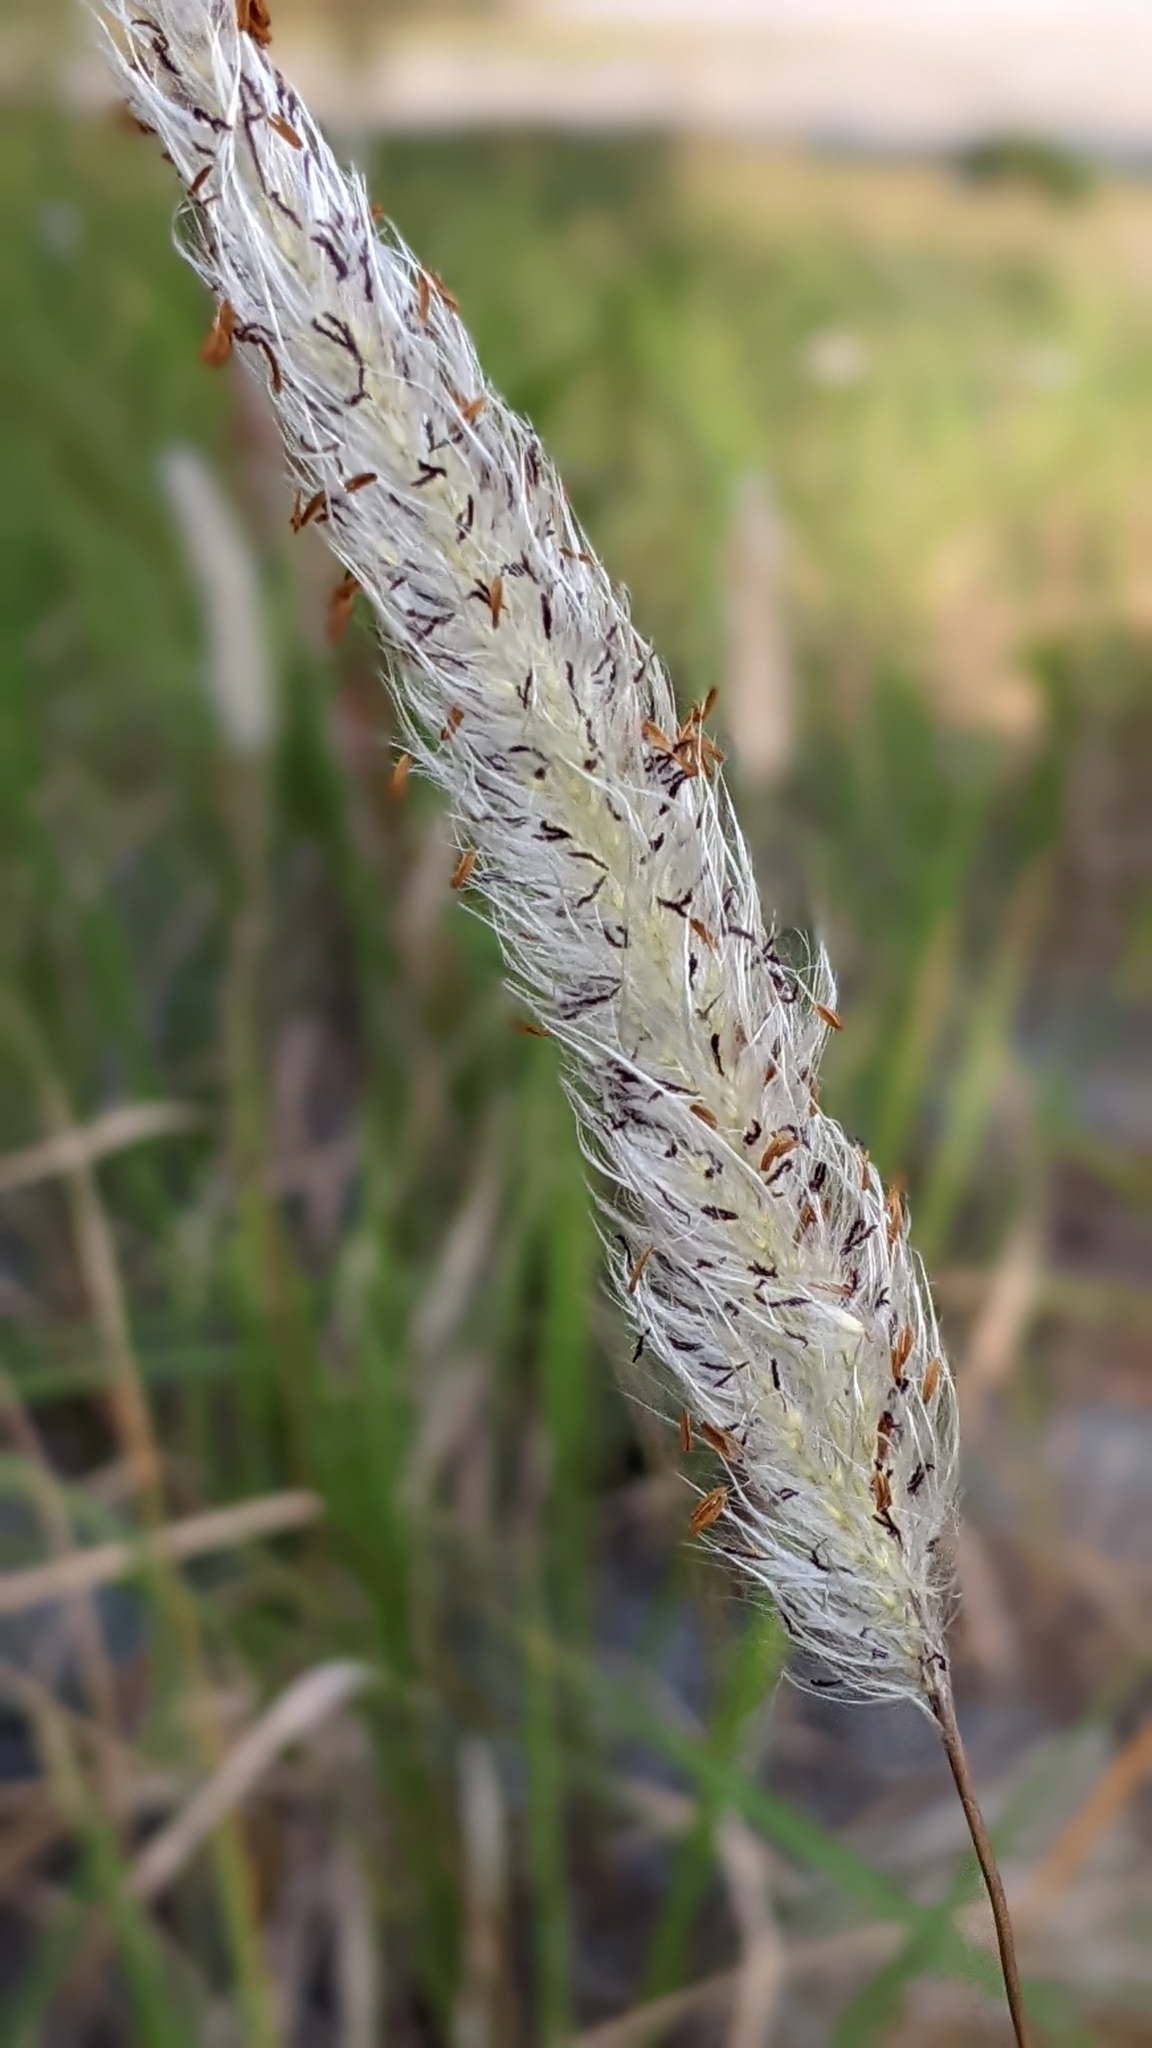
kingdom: Plantae
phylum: Tracheophyta
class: Liliopsida
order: Poales
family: Poaceae
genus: Imperata
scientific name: Imperata cylindrica
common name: Cogongrass
